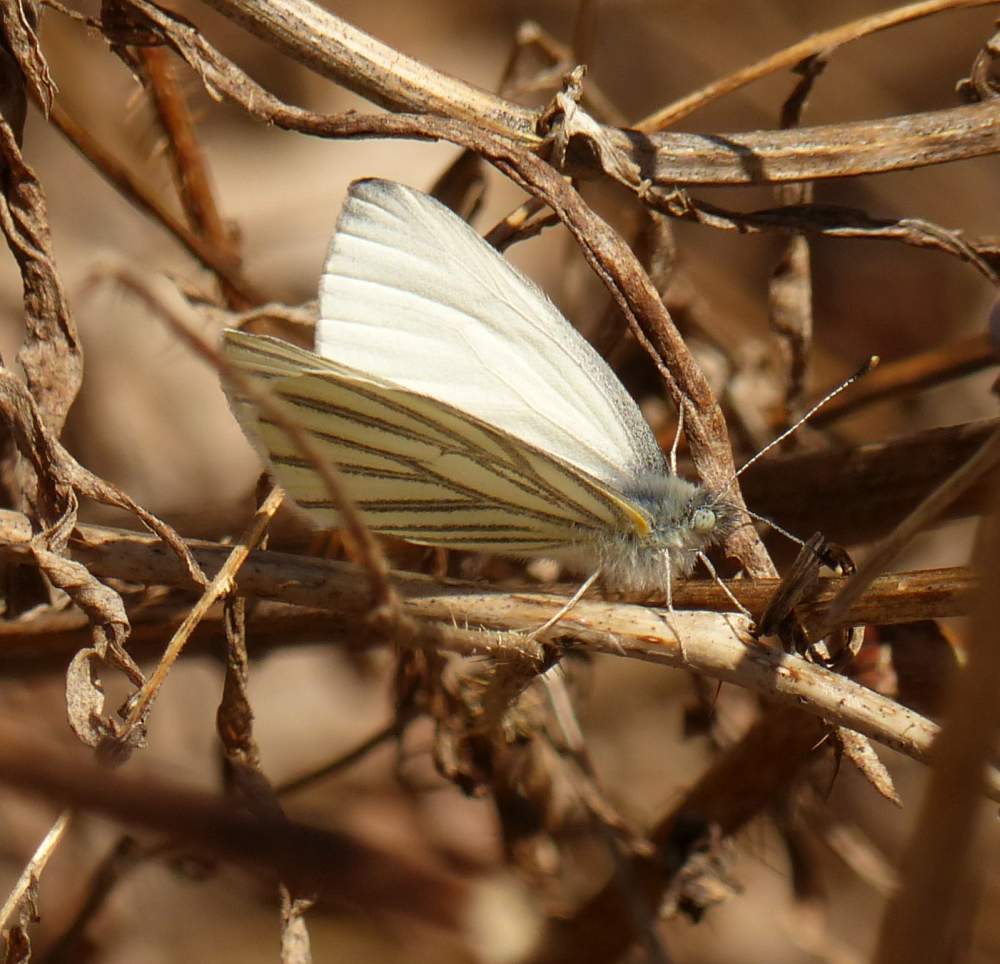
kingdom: Animalia
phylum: Arthropoda
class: Insecta
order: Lepidoptera
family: Pieridae
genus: Pieris
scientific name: Pieris oleracea
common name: Mustard white
